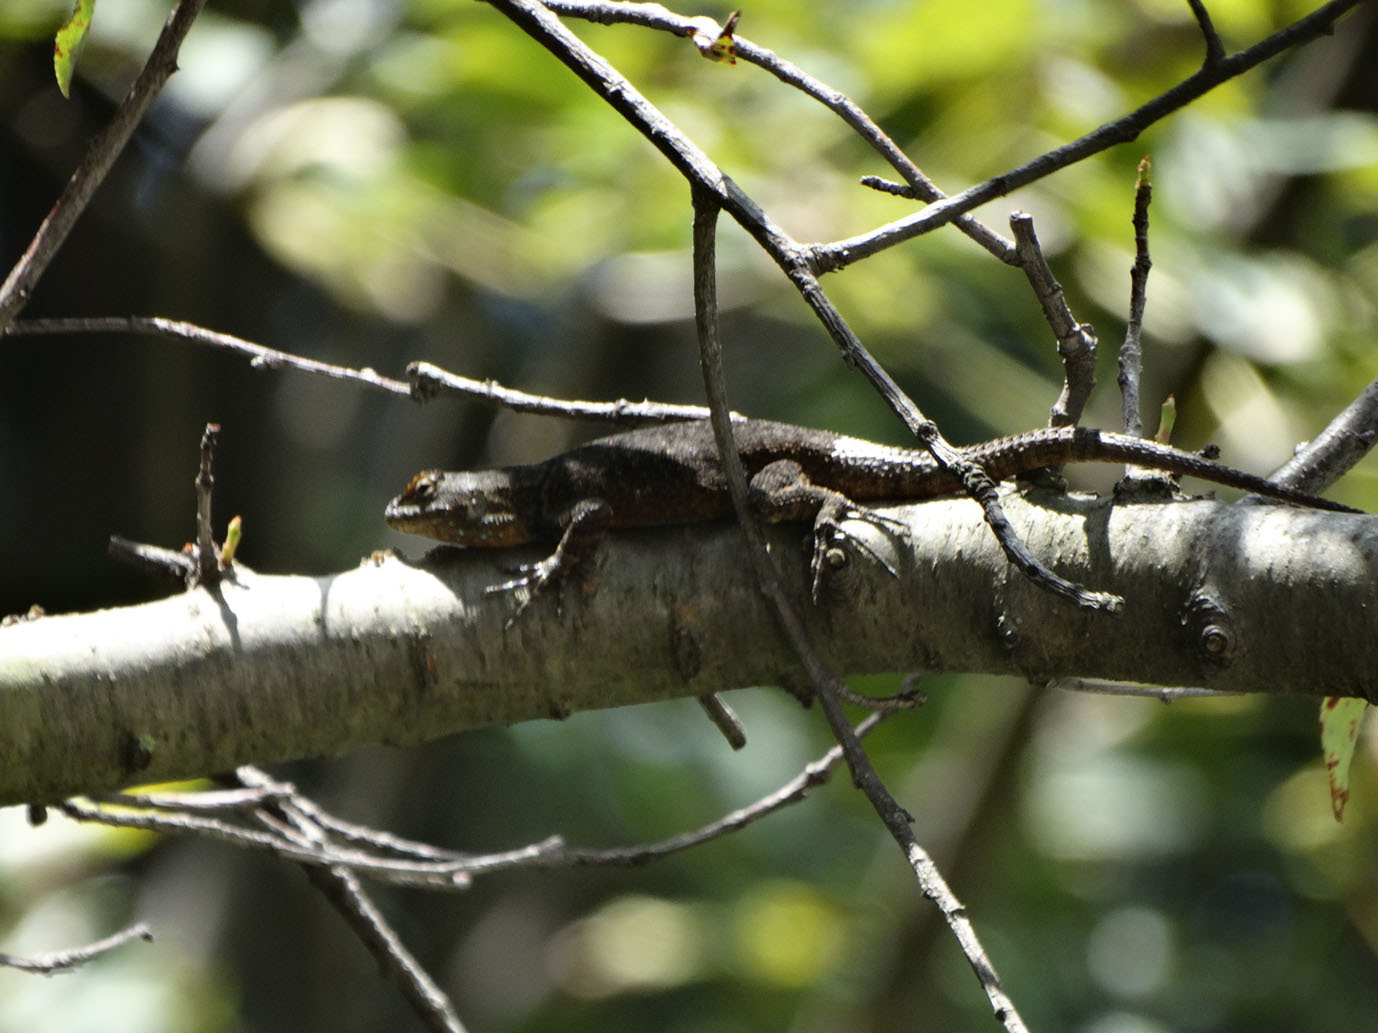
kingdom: Animalia
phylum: Chordata
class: Squamata
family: Phrynosomatidae
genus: Sceloporus
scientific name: Sceloporus grammicus
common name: Mesquite lizard
